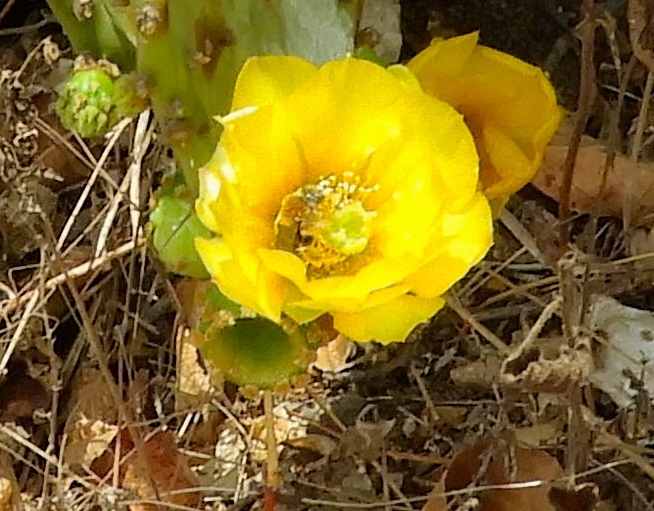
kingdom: Plantae
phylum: Tracheophyta
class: Magnoliopsida
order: Caryophyllales
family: Cactaceae
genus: Opuntia
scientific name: Opuntia
